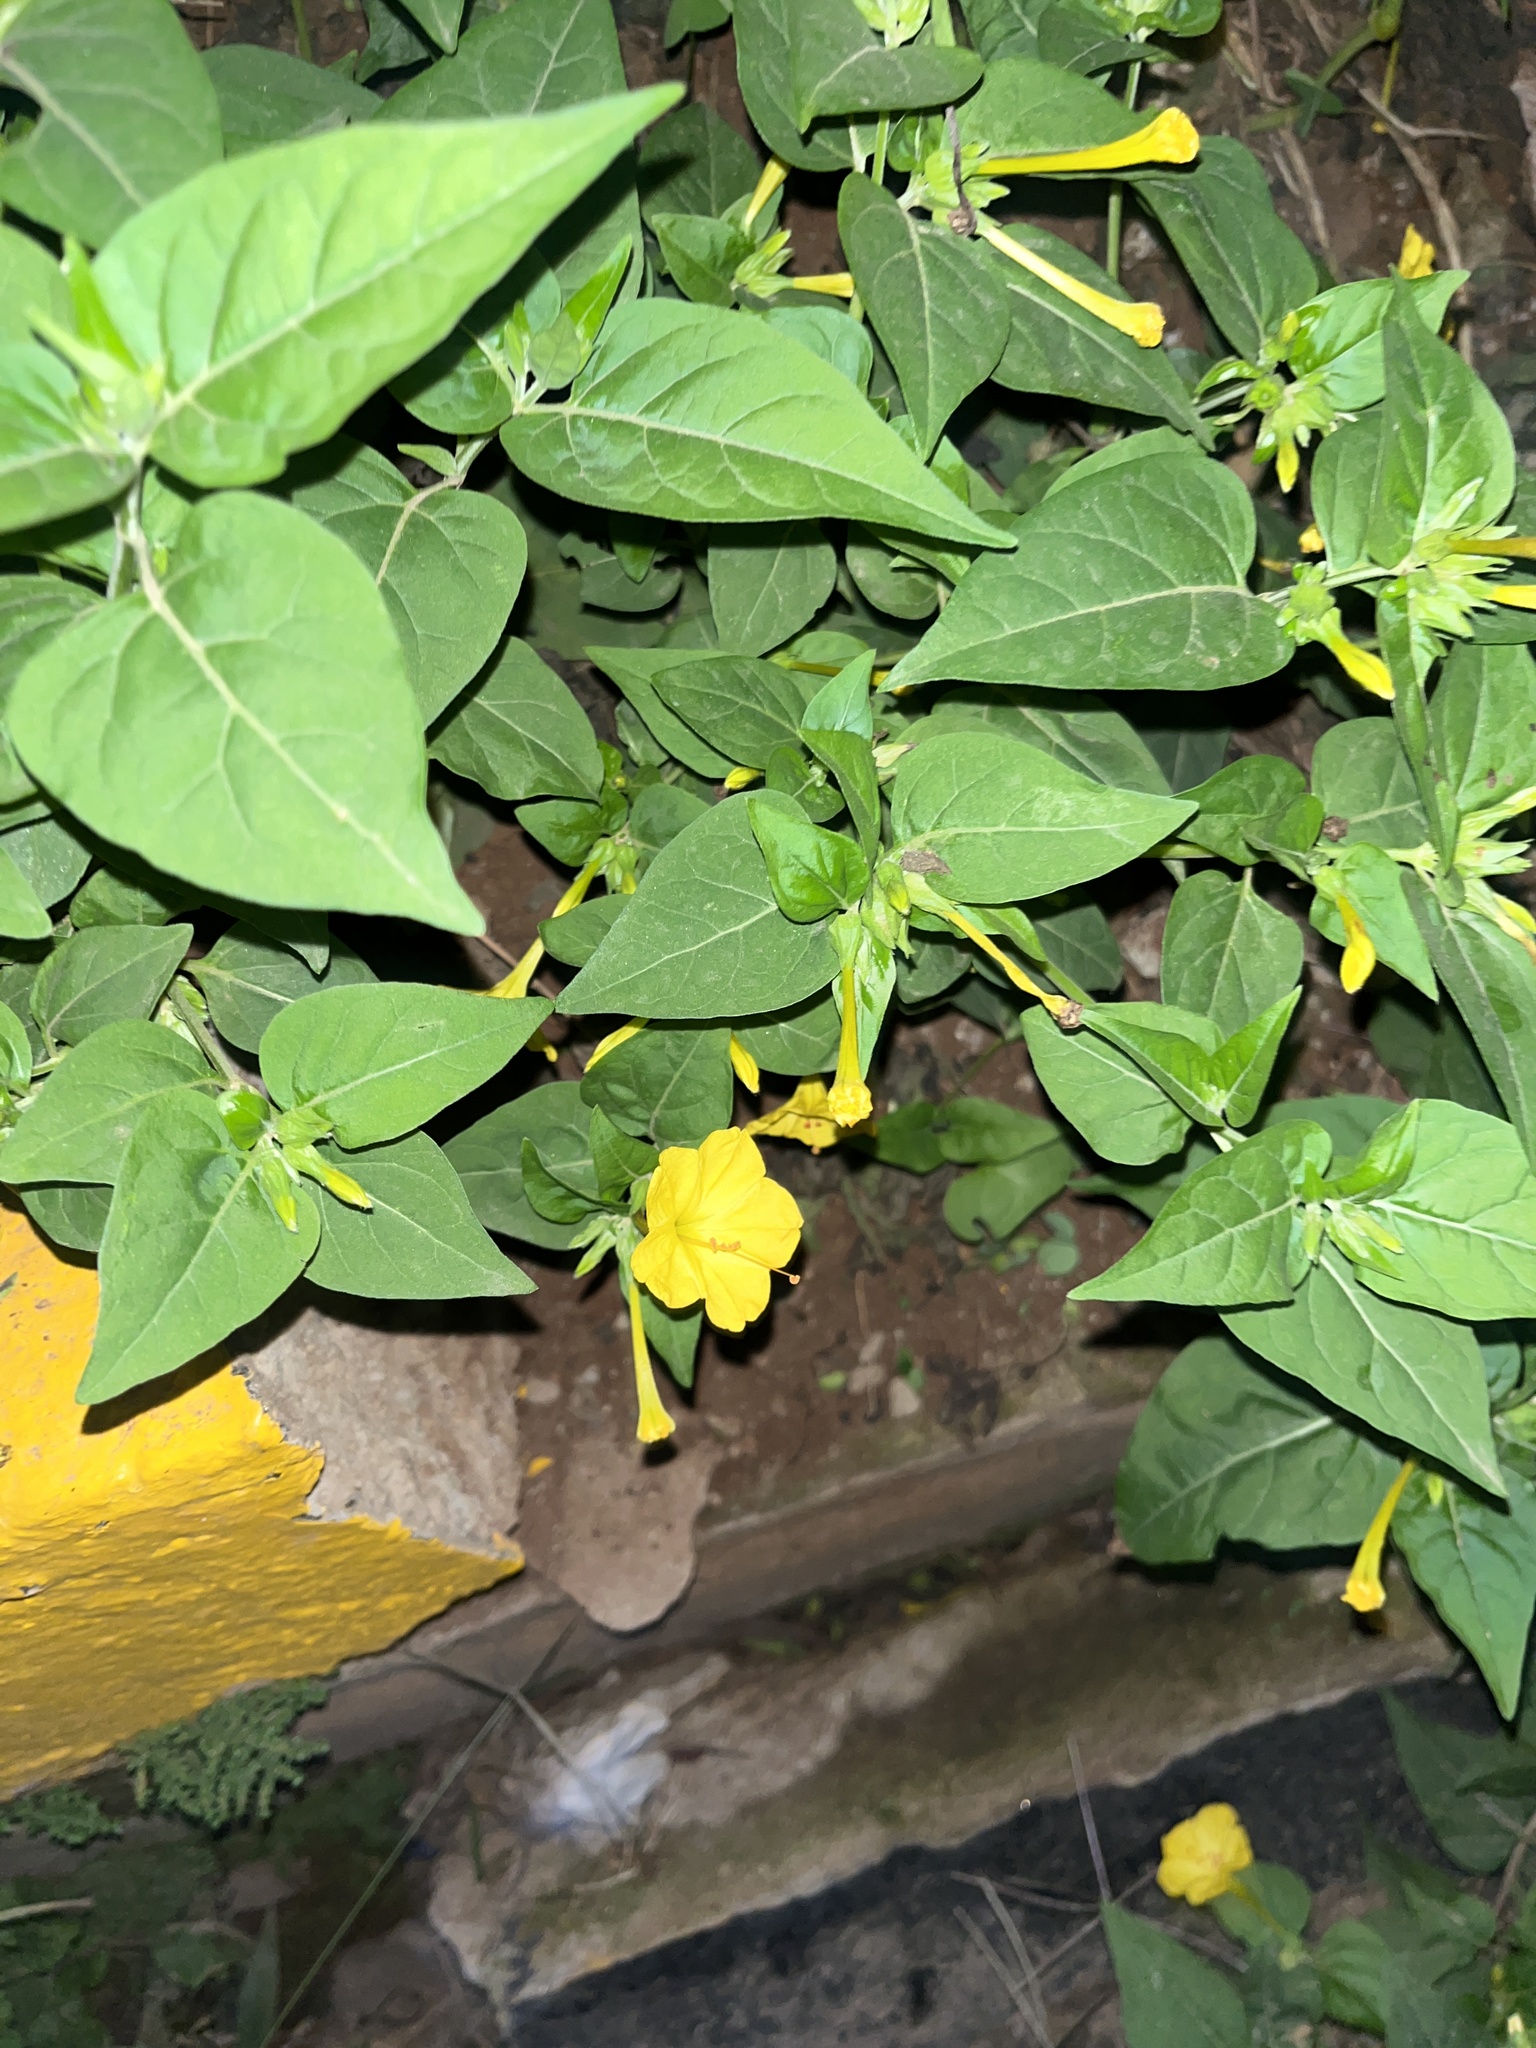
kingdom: Plantae
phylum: Tracheophyta
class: Magnoliopsida
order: Caryophyllales
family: Nyctaginaceae
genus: Mirabilis
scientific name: Mirabilis jalapa
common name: Marvel-of-peru
